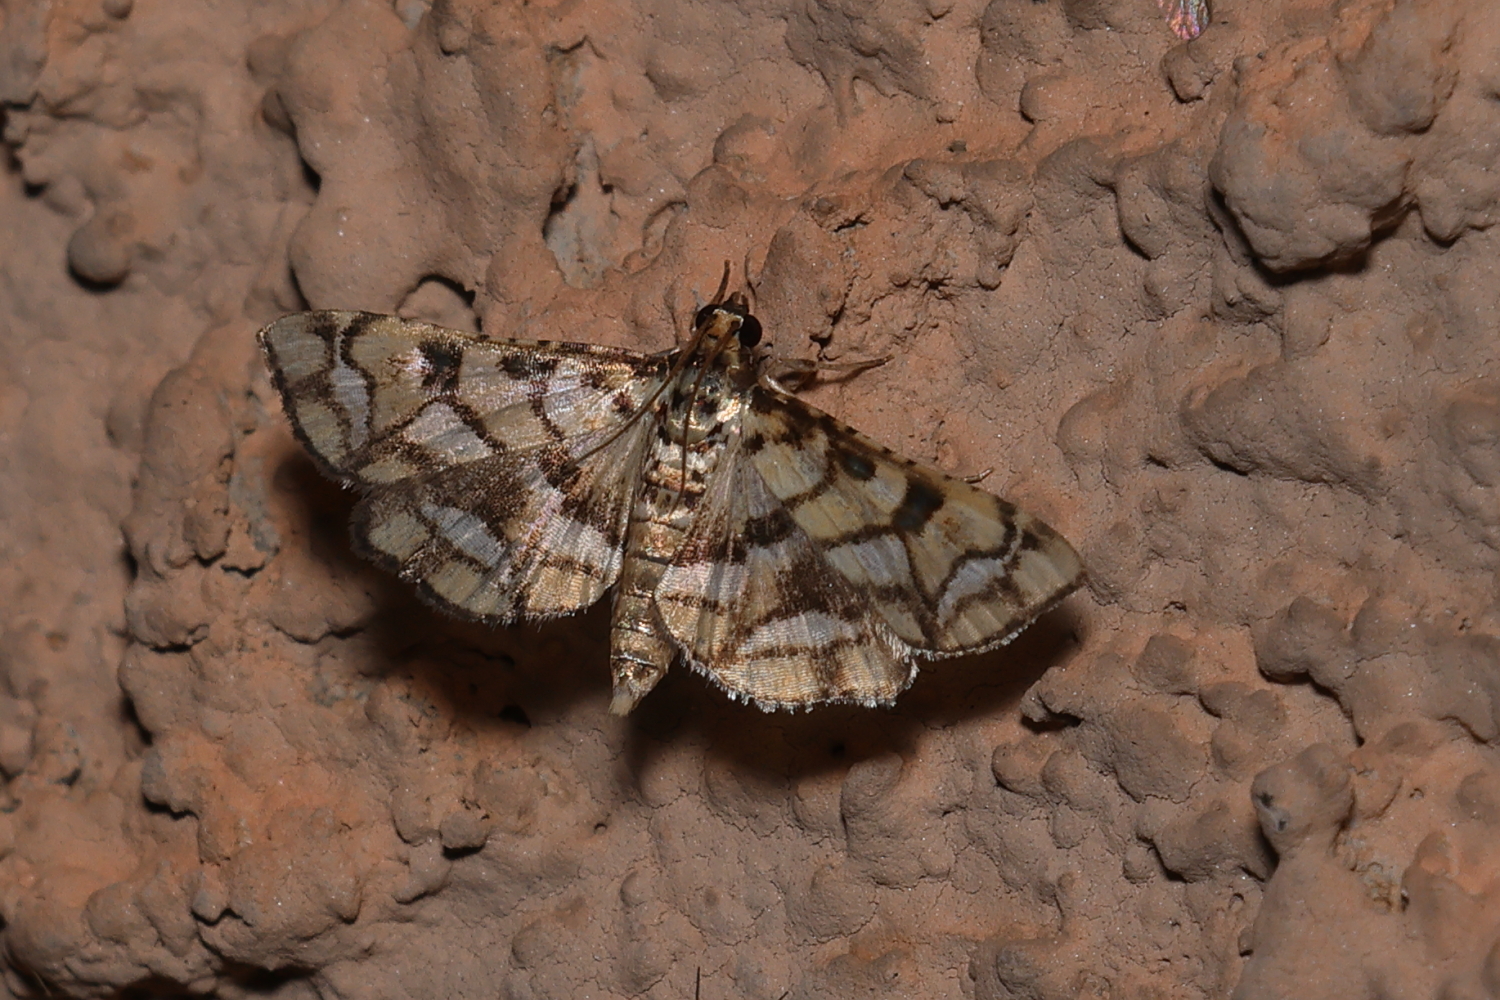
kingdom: Animalia
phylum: Arthropoda
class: Insecta
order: Lepidoptera
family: Crambidae
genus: Hileithia
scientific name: Hileithia magualis
